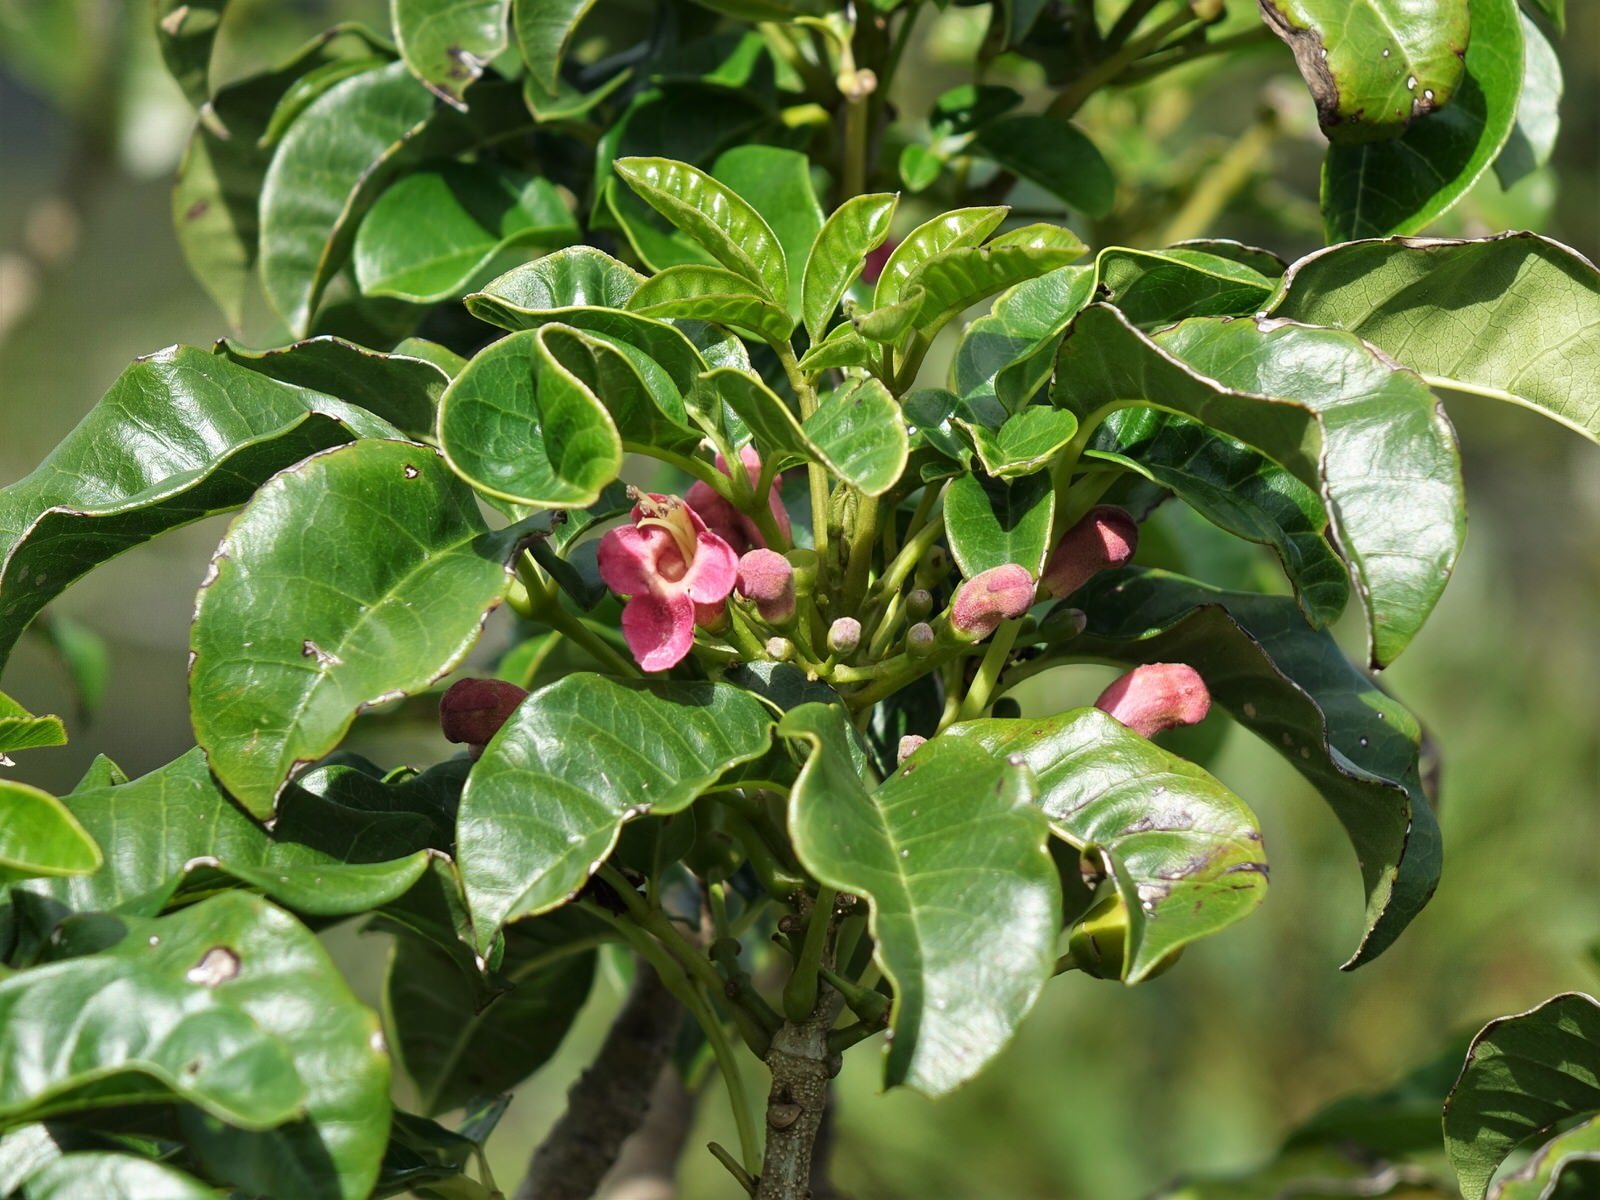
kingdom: Plantae
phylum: Tracheophyta
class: Magnoliopsida
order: Lamiales
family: Lamiaceae
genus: Vitex
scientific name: Vitex lucens
